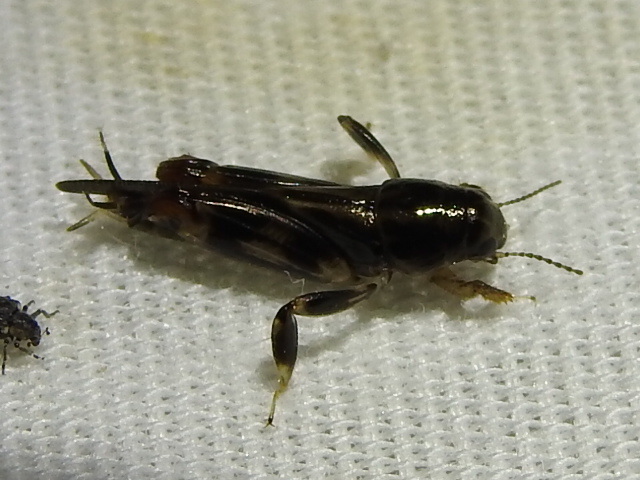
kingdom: Animalia
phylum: Arthropoda
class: Insecta
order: Orthoptera
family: Tridactylidae
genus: Neotridactylus
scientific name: Neotridactylus apicialis
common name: Larger pygmy locust
